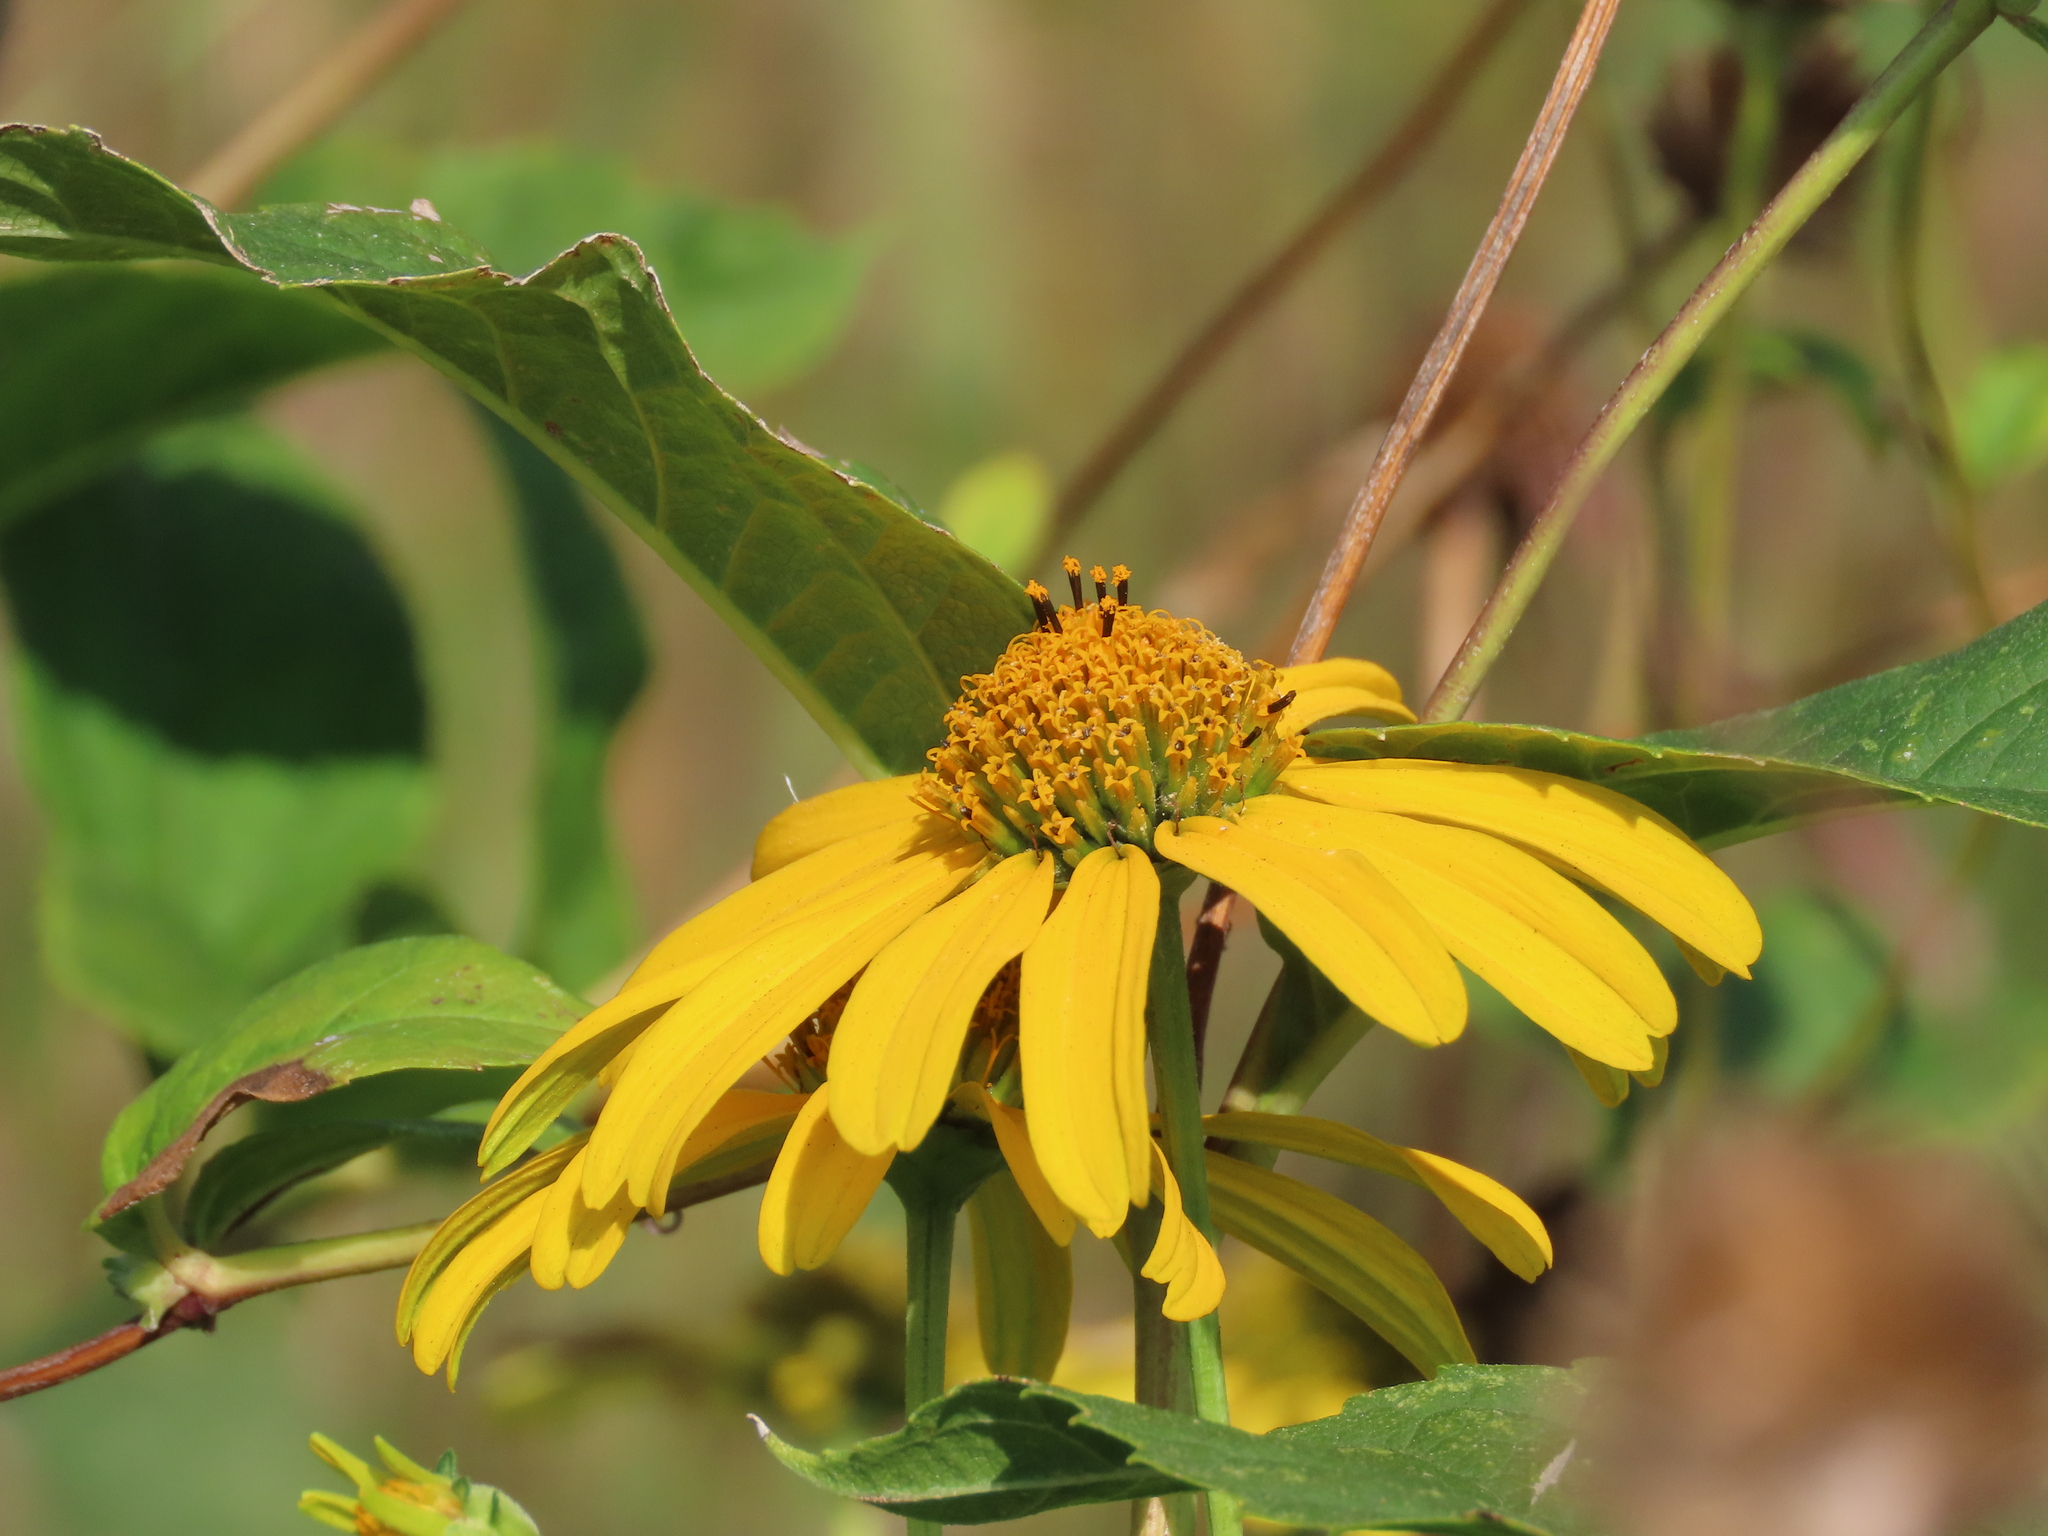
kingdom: Plantae
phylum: Tracheophyta
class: Magnoliopsida
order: Asterales
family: Asteraceae
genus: Heliopsis
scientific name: Heliopsis helianthoides
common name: False sunflower
